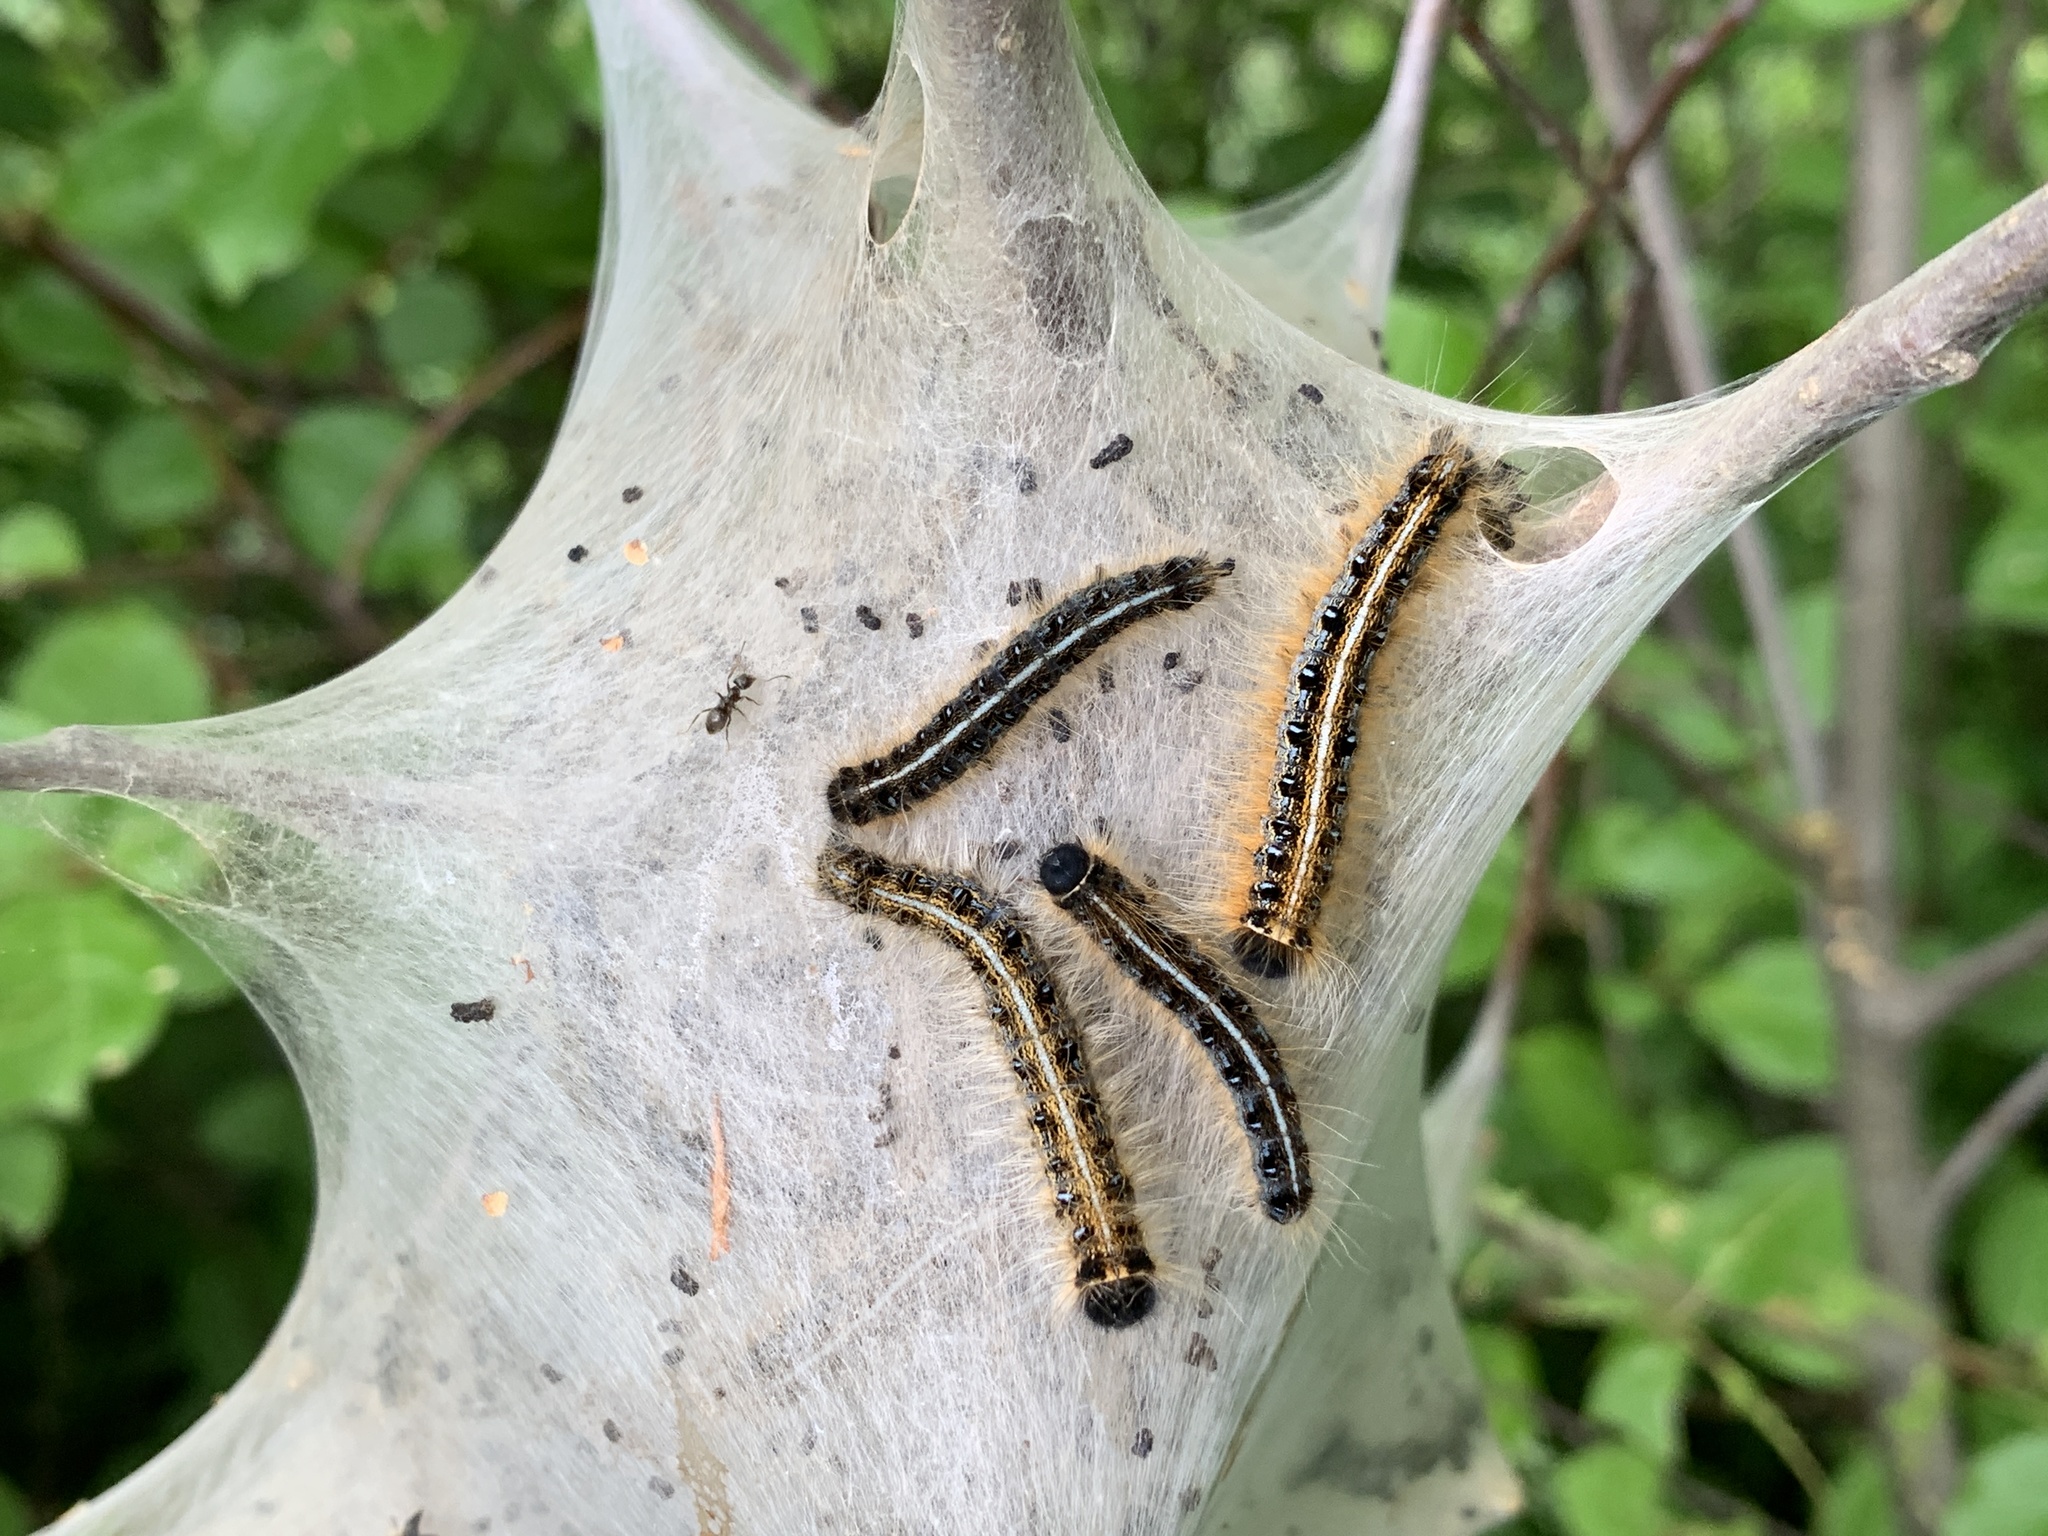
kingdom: Animalia
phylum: Arthropoda
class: Insecta
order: Lepidoptera
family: Lasiocampidae
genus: Malacosoma
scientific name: Malacosoma americana
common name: Eastern tent caterpillar moth
